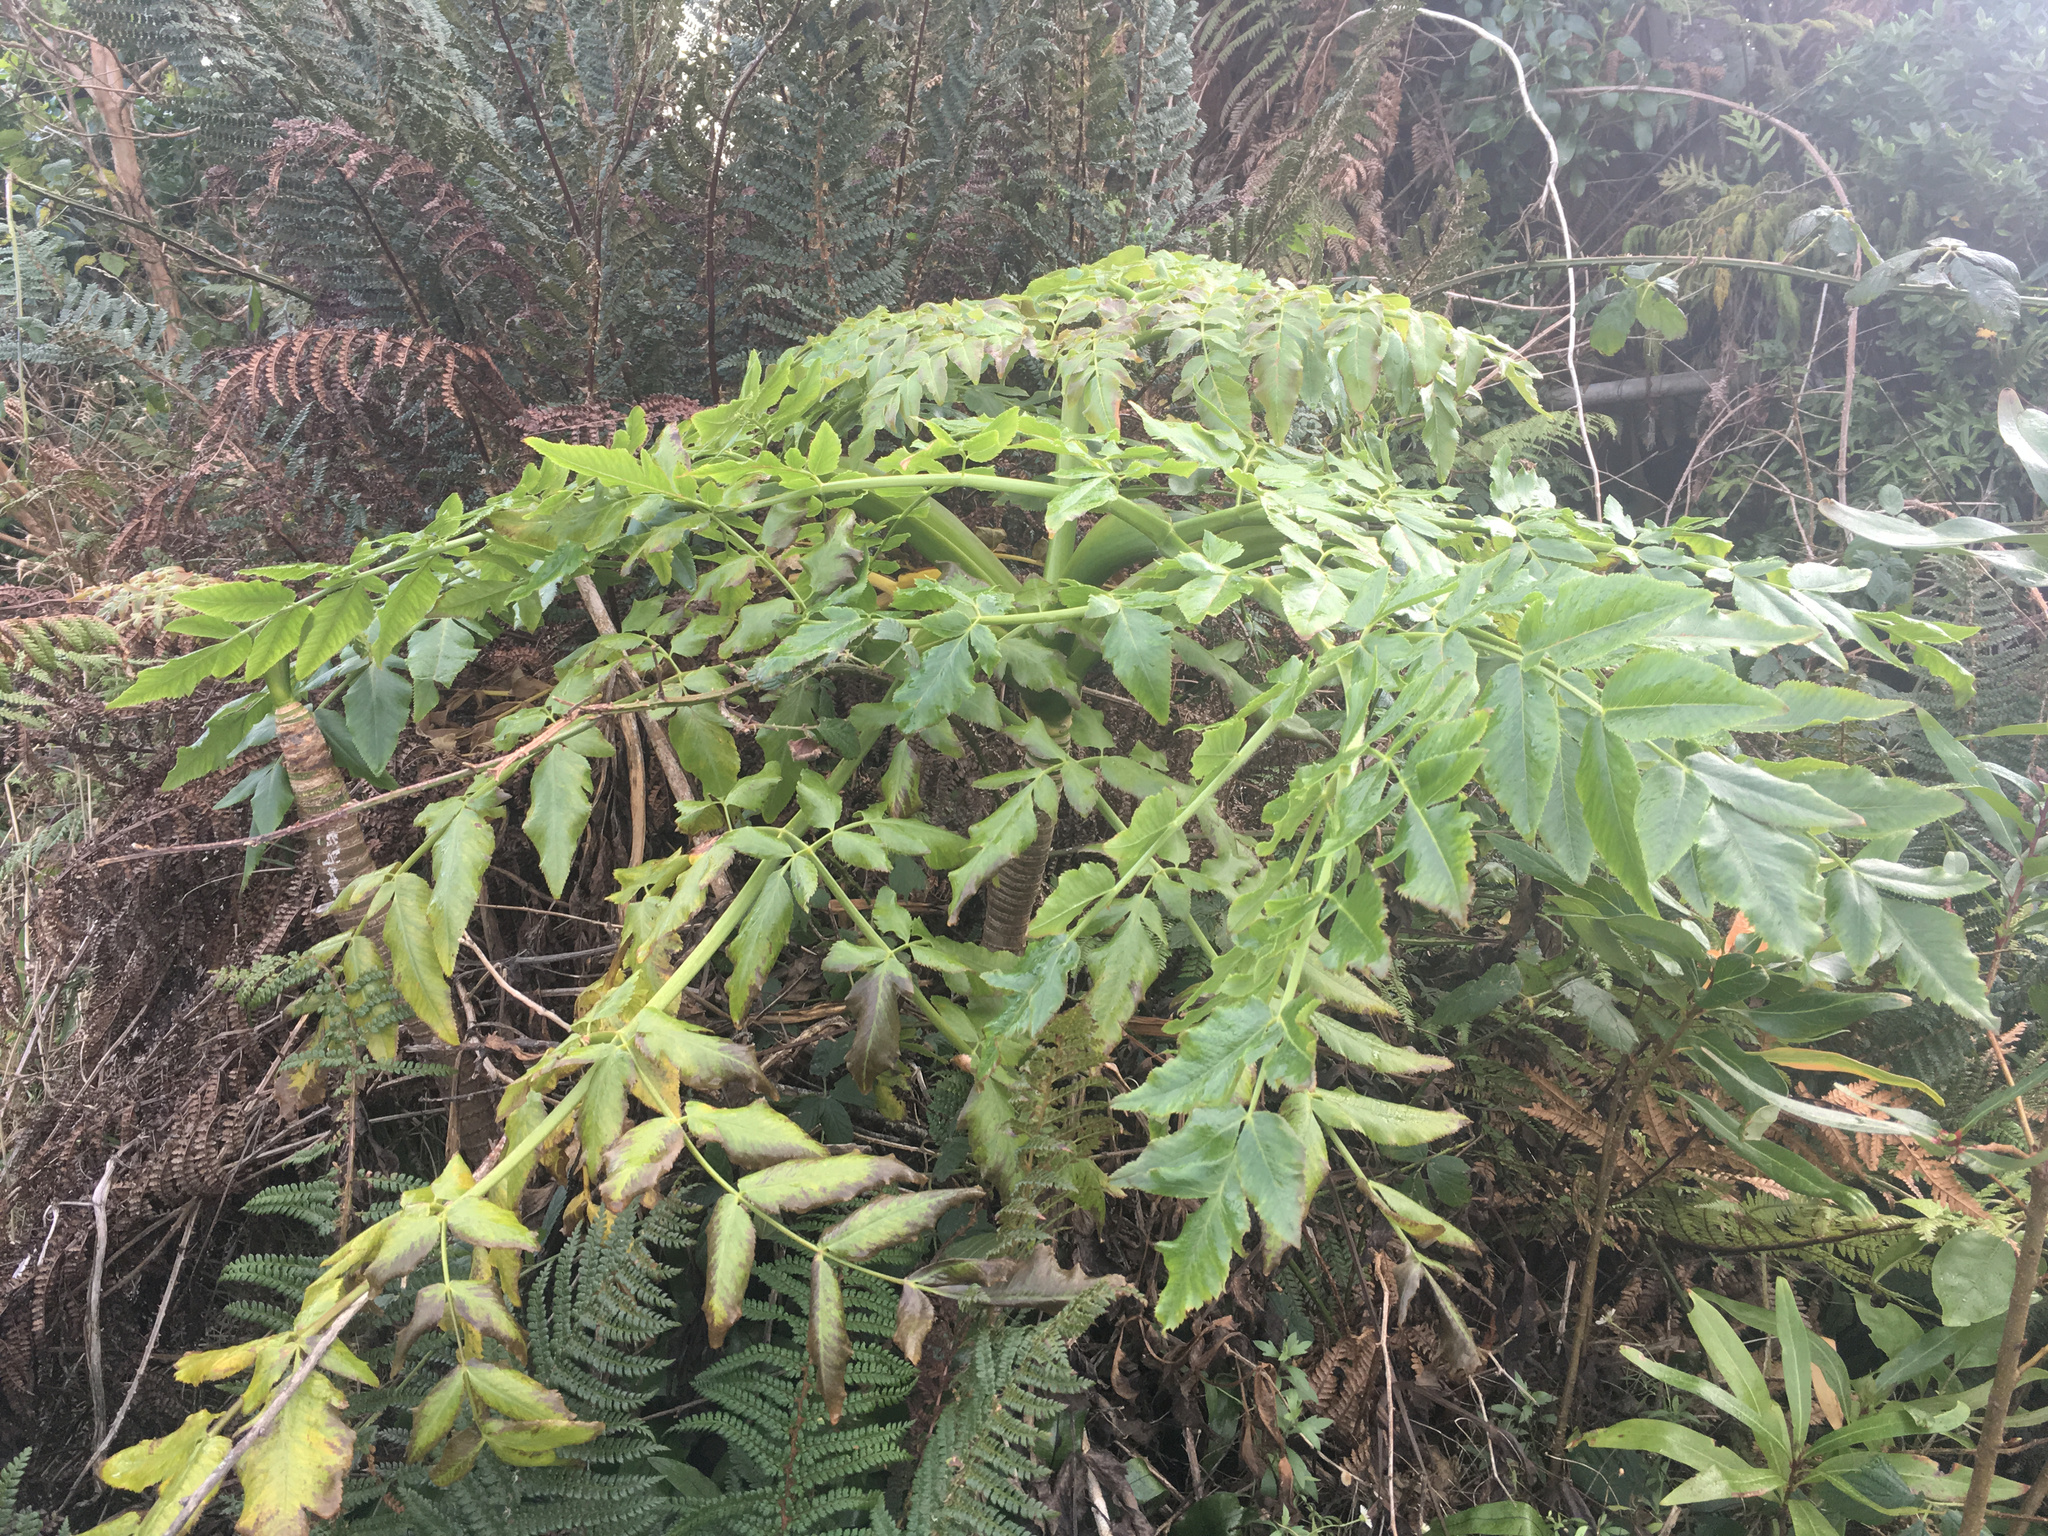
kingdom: Plantae
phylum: Tracheophyta
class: Magnoliopsida
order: Apiales
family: Apiaceae
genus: Daucus
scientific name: Daucus decipiens
